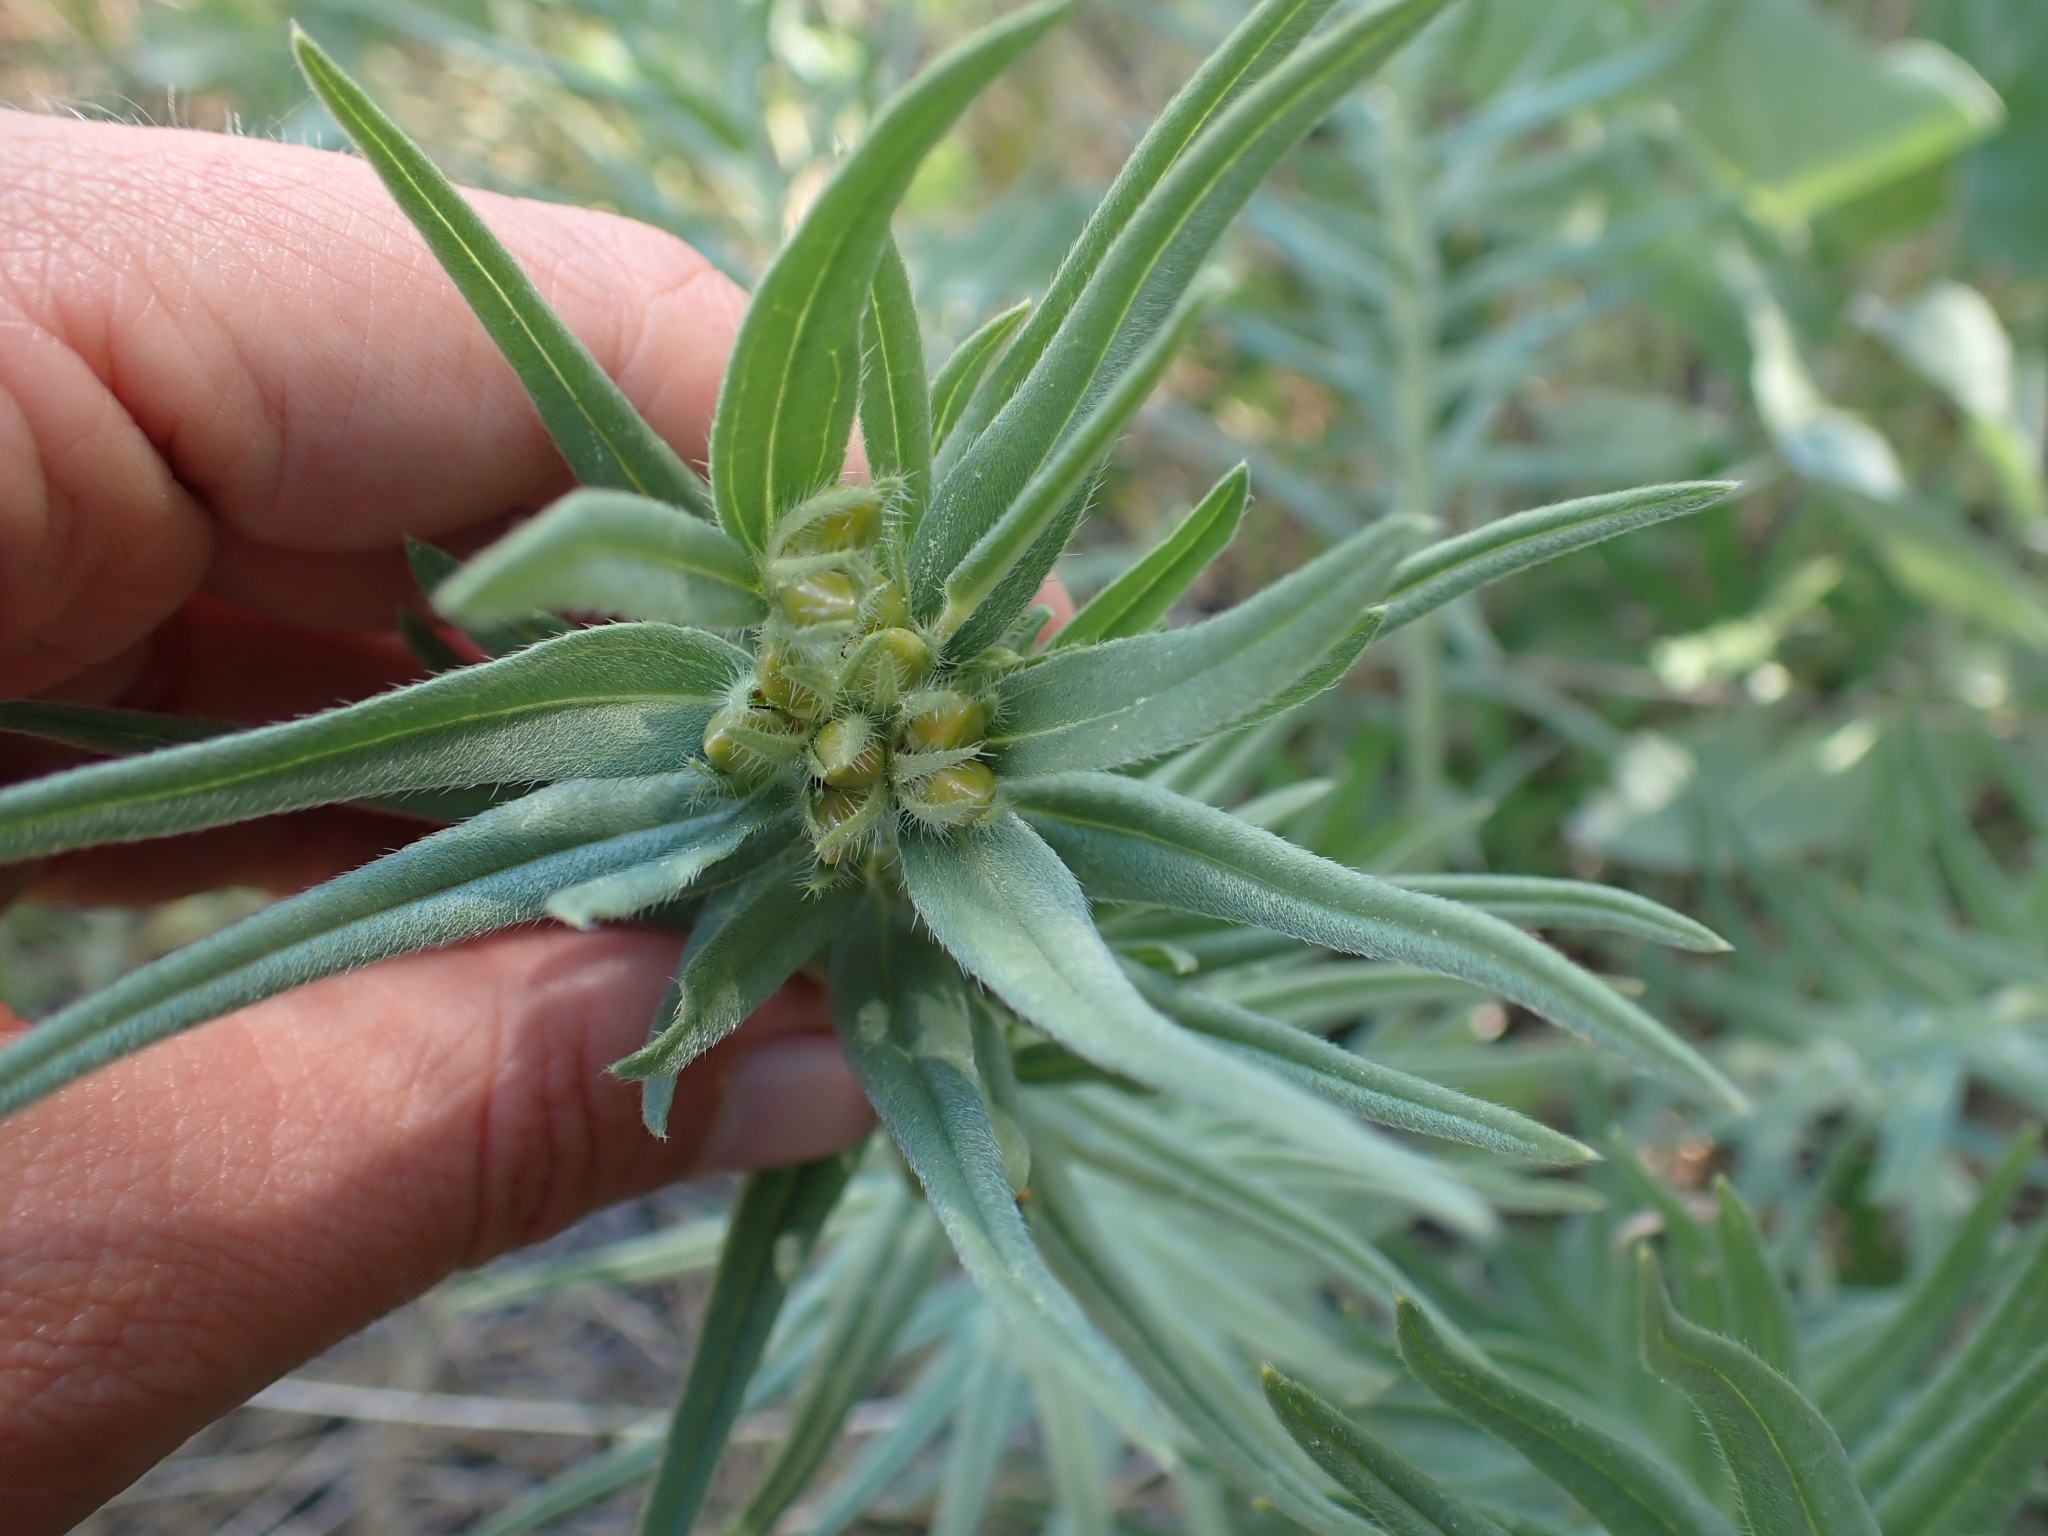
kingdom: Plantae
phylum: Tracheophyta
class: Magnoliopsida
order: Boraginales
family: Boraginaceae
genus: Lithospermum
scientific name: Lithospermum ruderale
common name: Western gromwell
